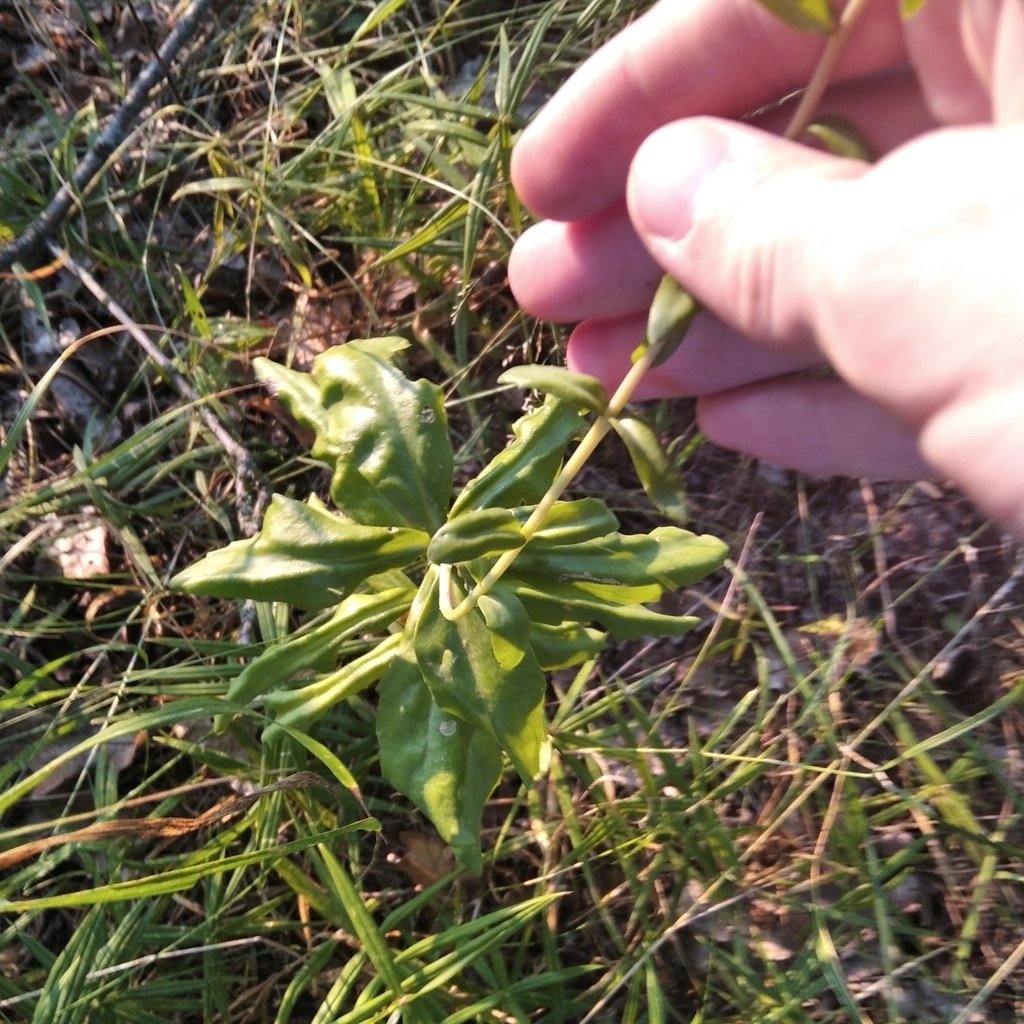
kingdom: Plantae
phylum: Tracheophyta
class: Magnoliopsida
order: Saxifragales
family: Crassulaceae
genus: Hylotelephium
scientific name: Hylotelephium telephium
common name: Live-forever
